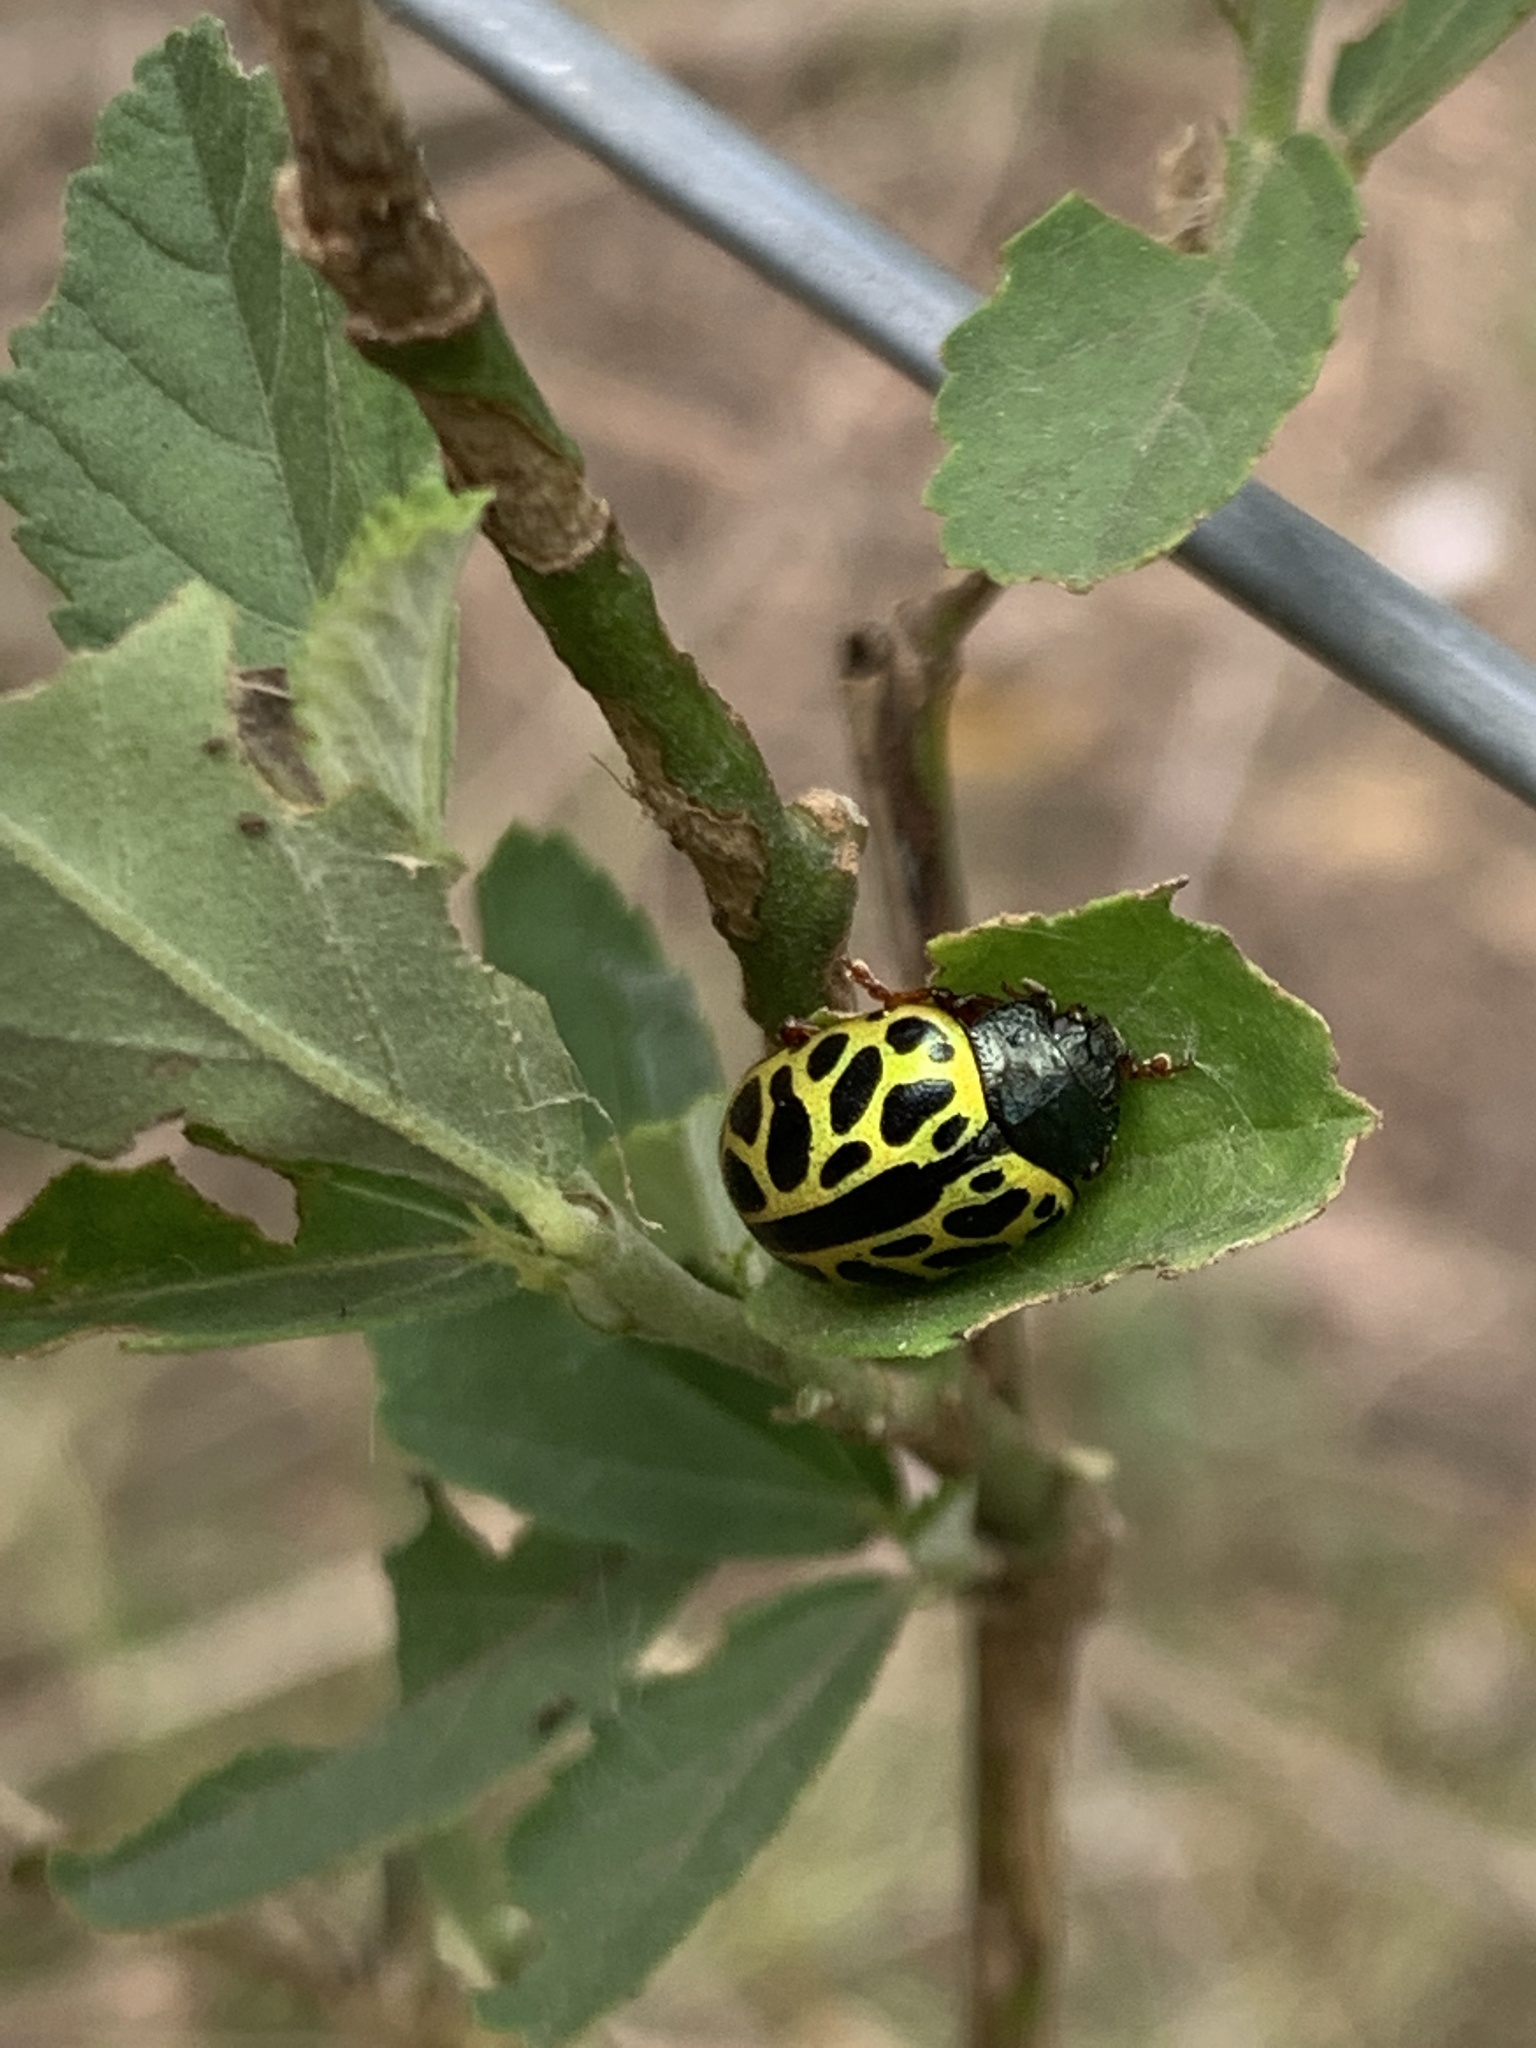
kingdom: Animalia
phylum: Arthropoda
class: Insecta
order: Coleoptera
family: Chrysomelidae
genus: Calligrapha
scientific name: Calligrapha polyspila
